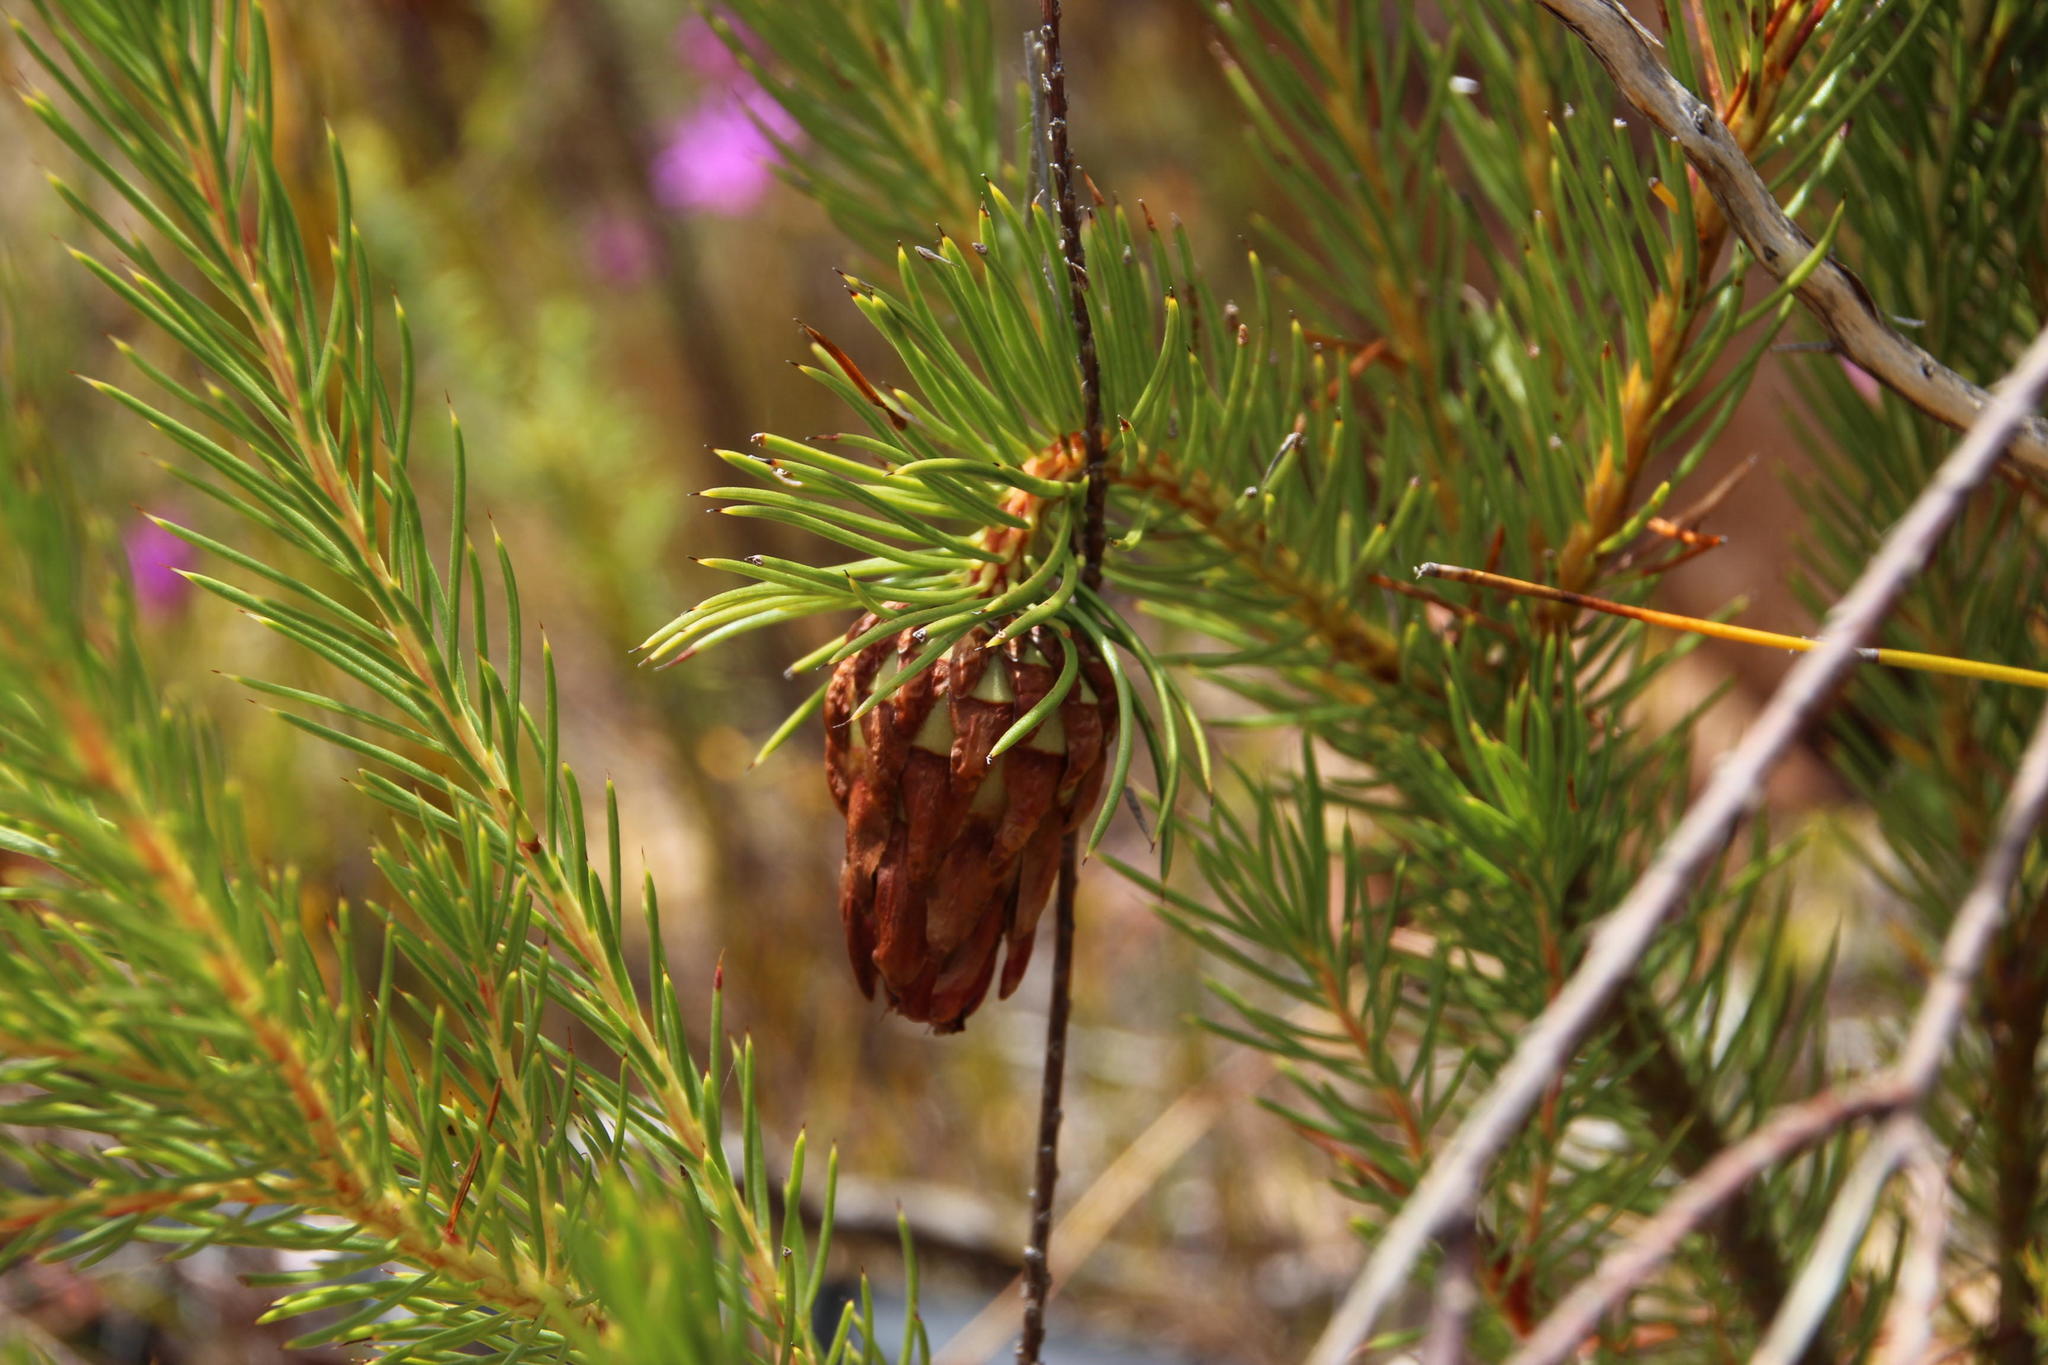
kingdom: Plantae
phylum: Tracheophyta
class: Magnoliopsida
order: Proteales
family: Proteaceae
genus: Protea
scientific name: Protea nana
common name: Mountain rose
